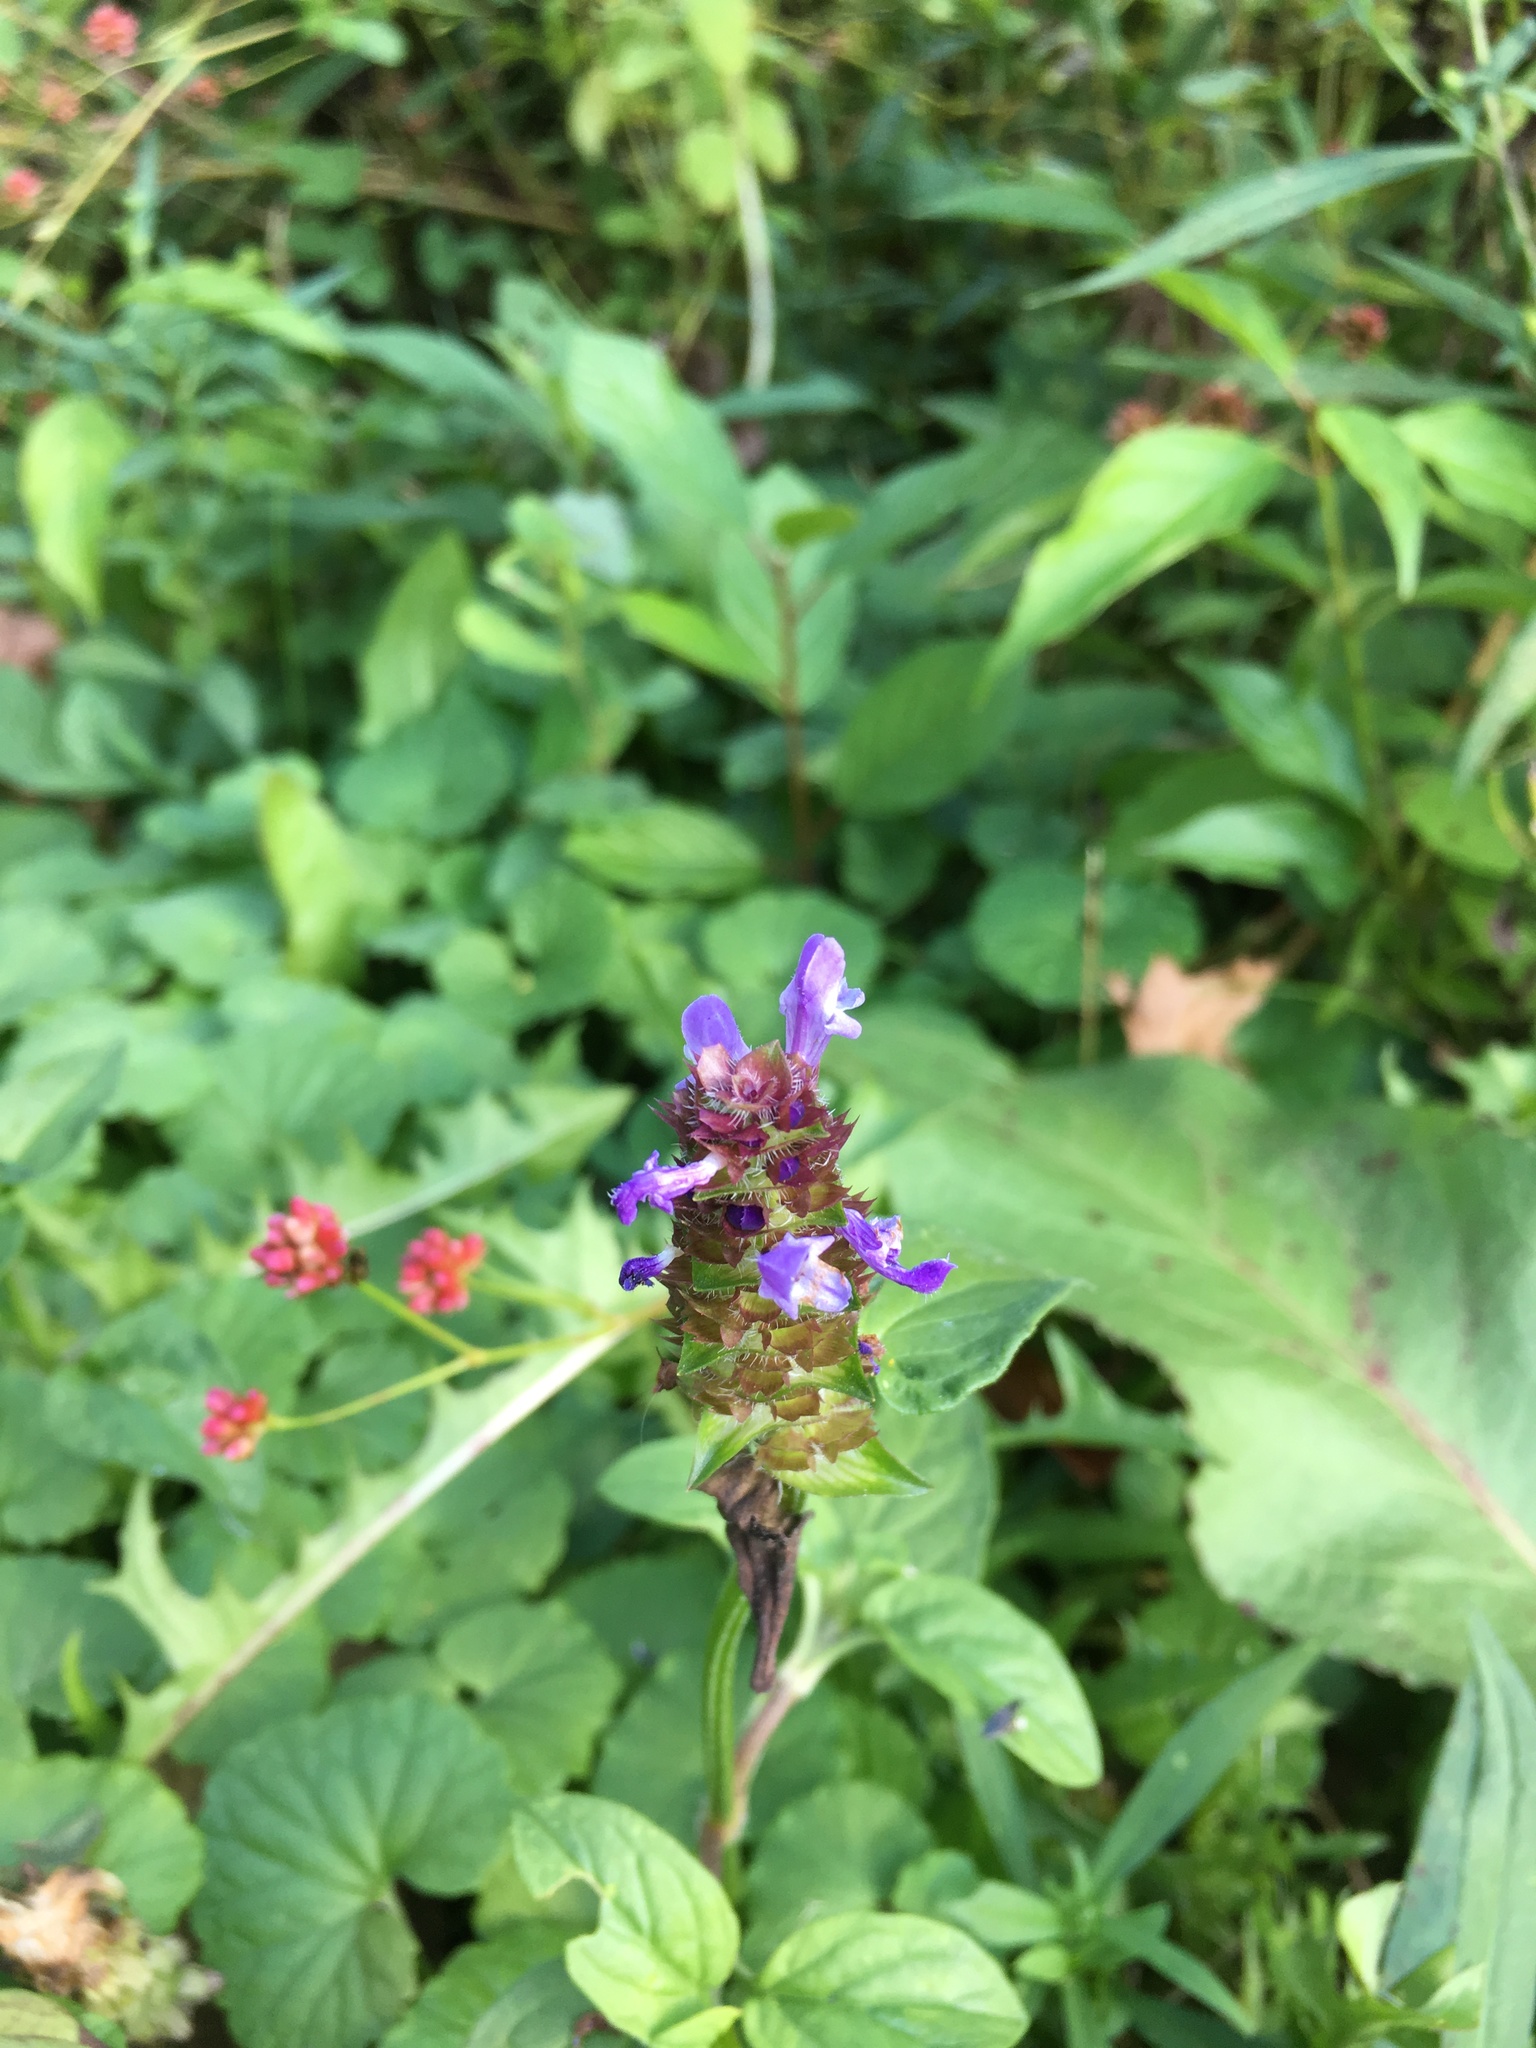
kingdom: Plantae
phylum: Tracheophyta
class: Magnoliopsida
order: Lamiales
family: Lamiaceae
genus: Prunella
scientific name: Prunella vulgaris
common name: Heal-all
